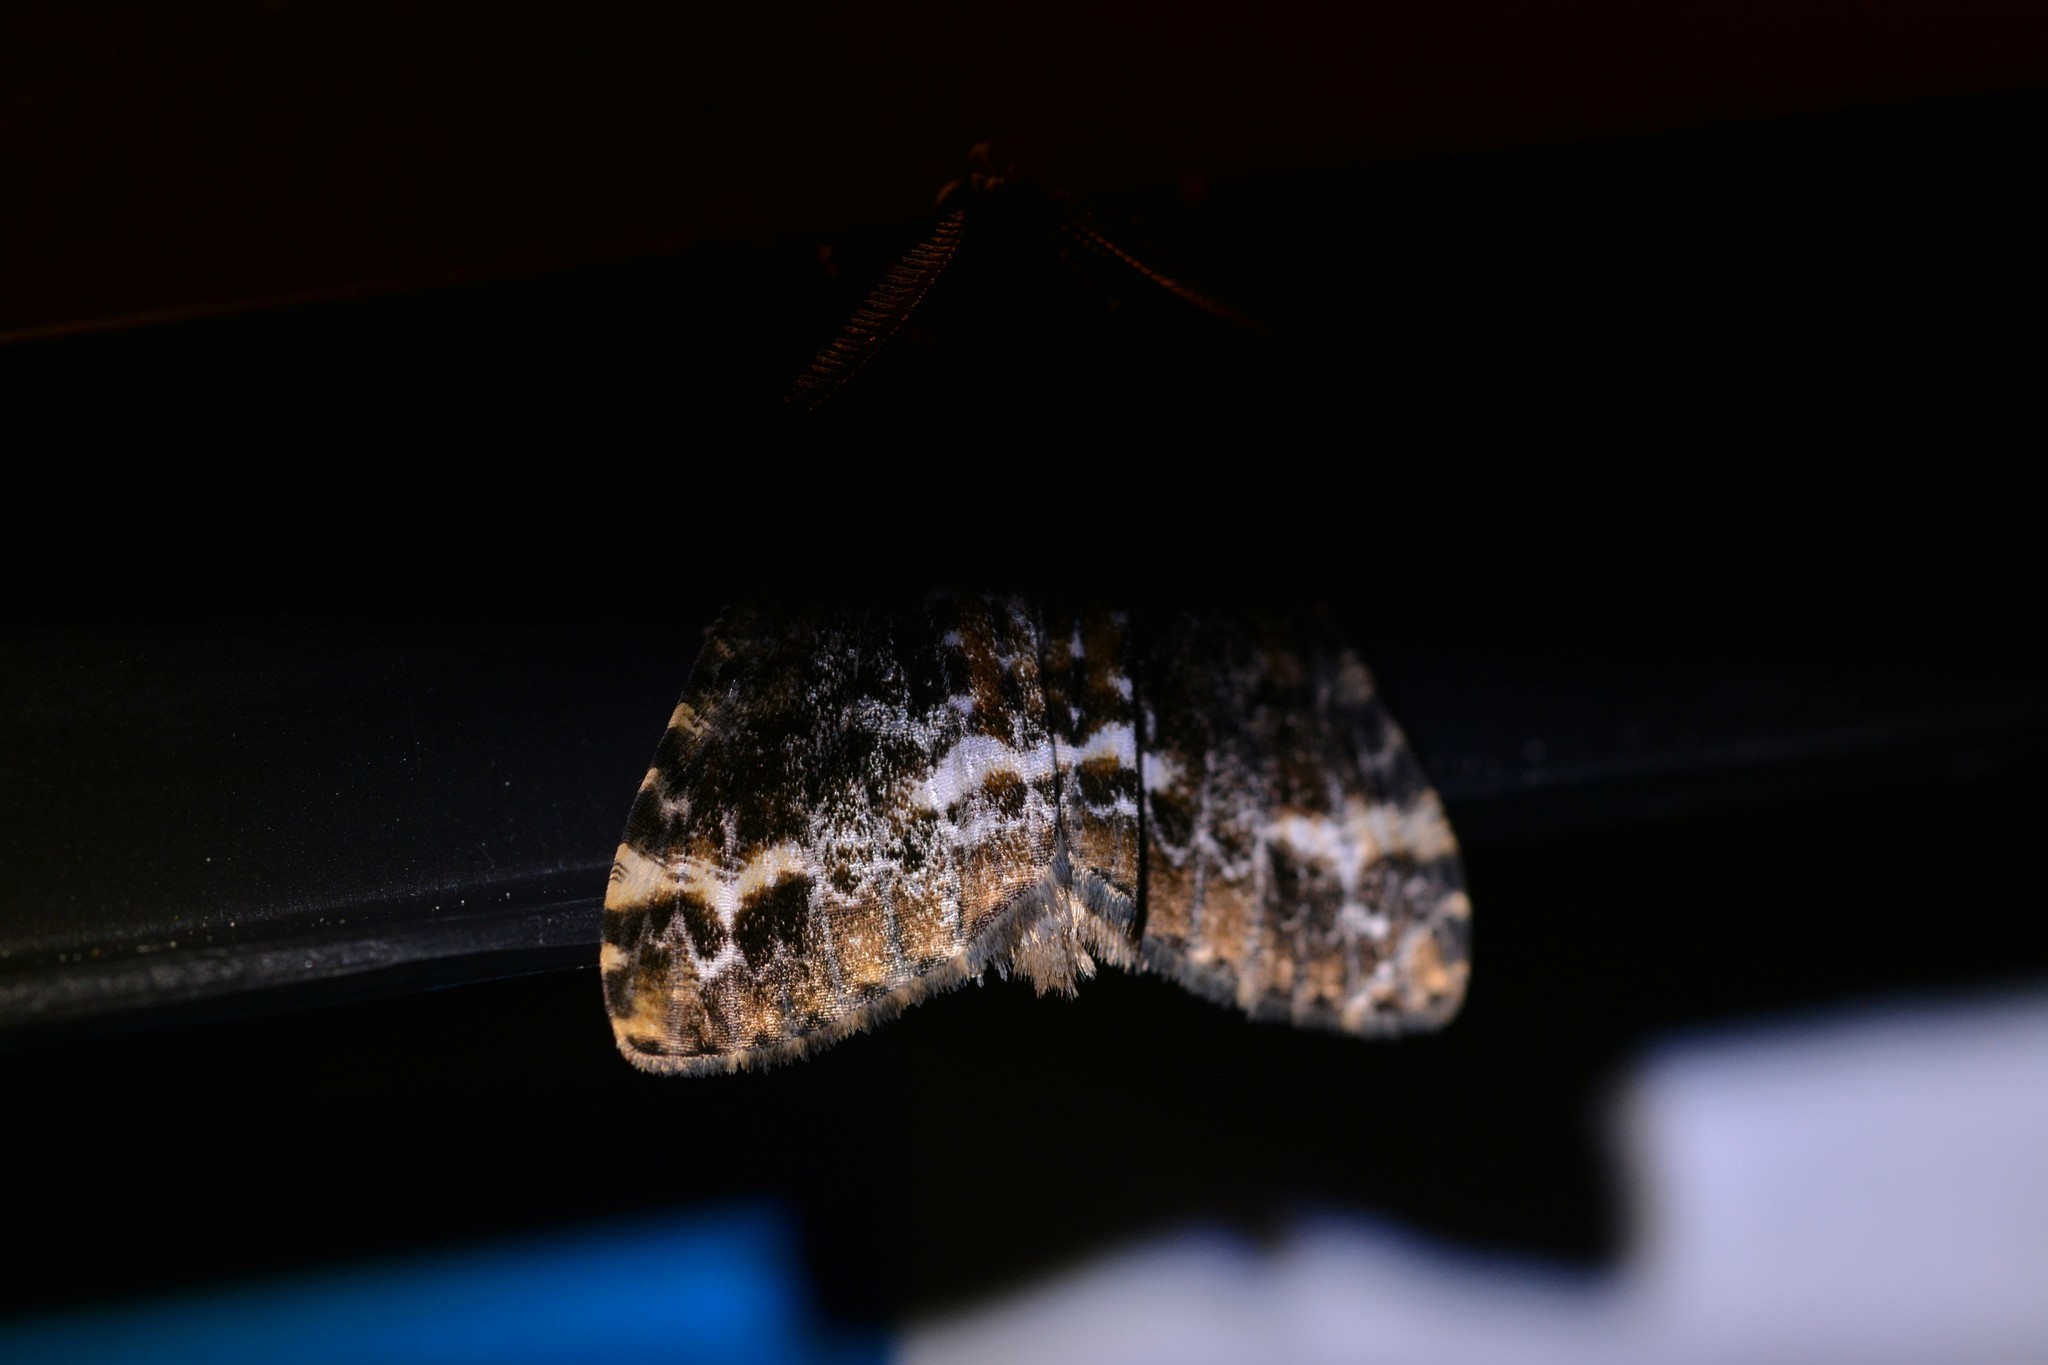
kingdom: Animalia
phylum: Arthropoda
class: Insecta
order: Lepidoptera
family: Geometridae
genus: Pseudocoremia
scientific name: Pseudocoremia leucelaea
